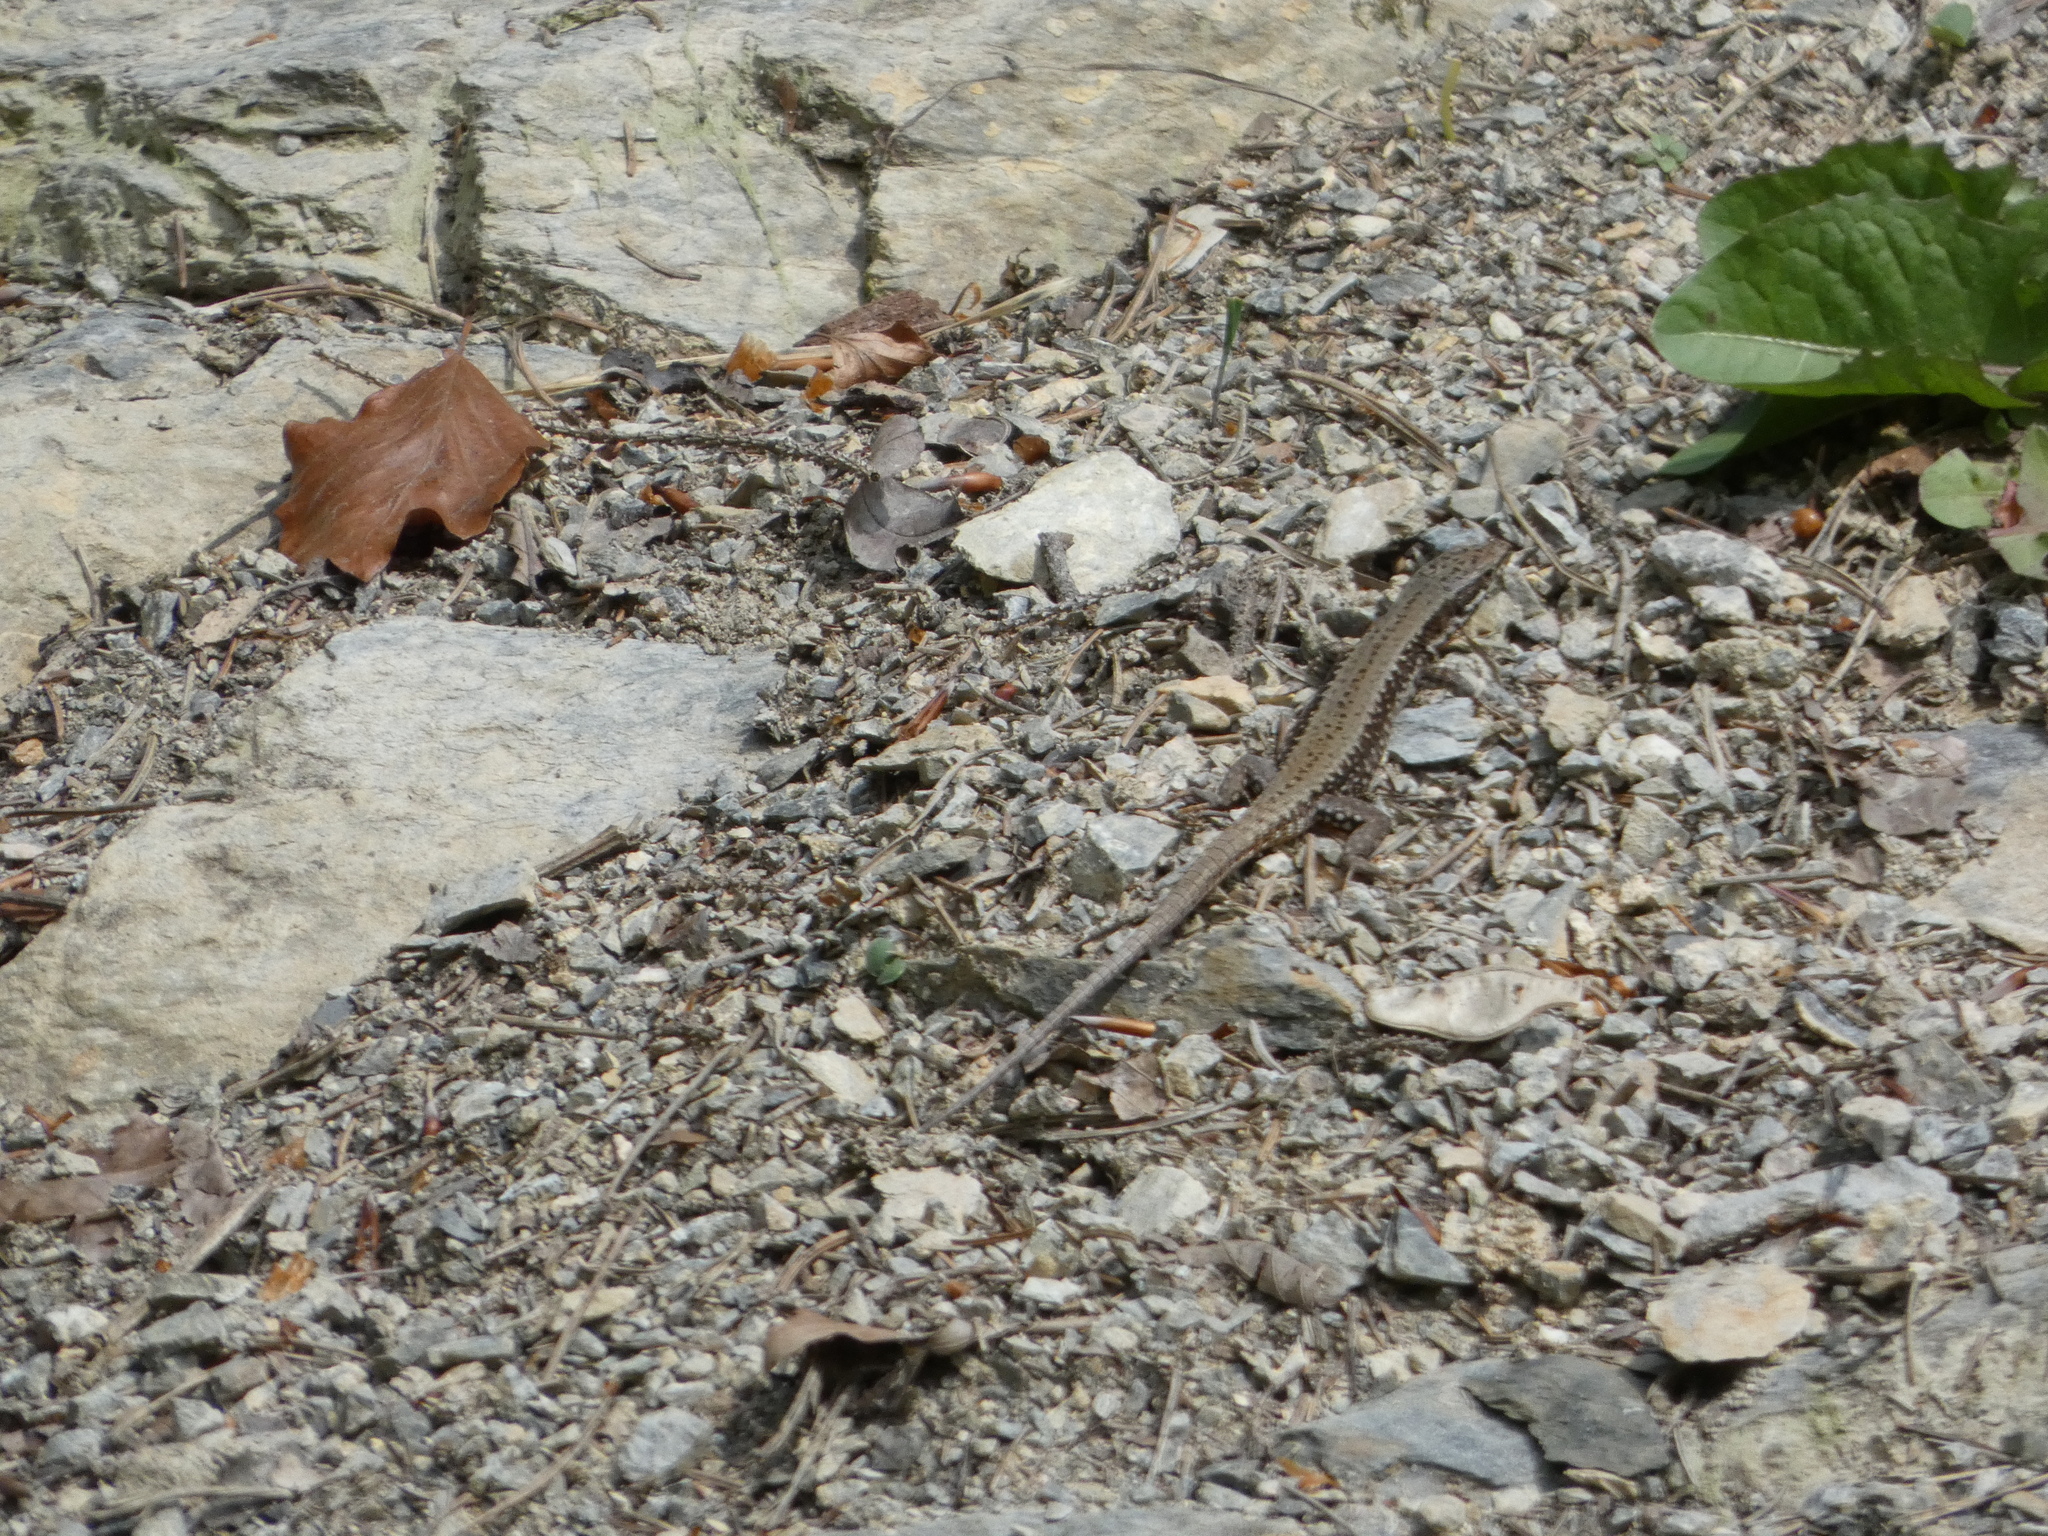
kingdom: Animalia
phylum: Chordata
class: Squamata
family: Lacertidae
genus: Podarcis
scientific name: Podarcis muralis
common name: Common wall lizard
